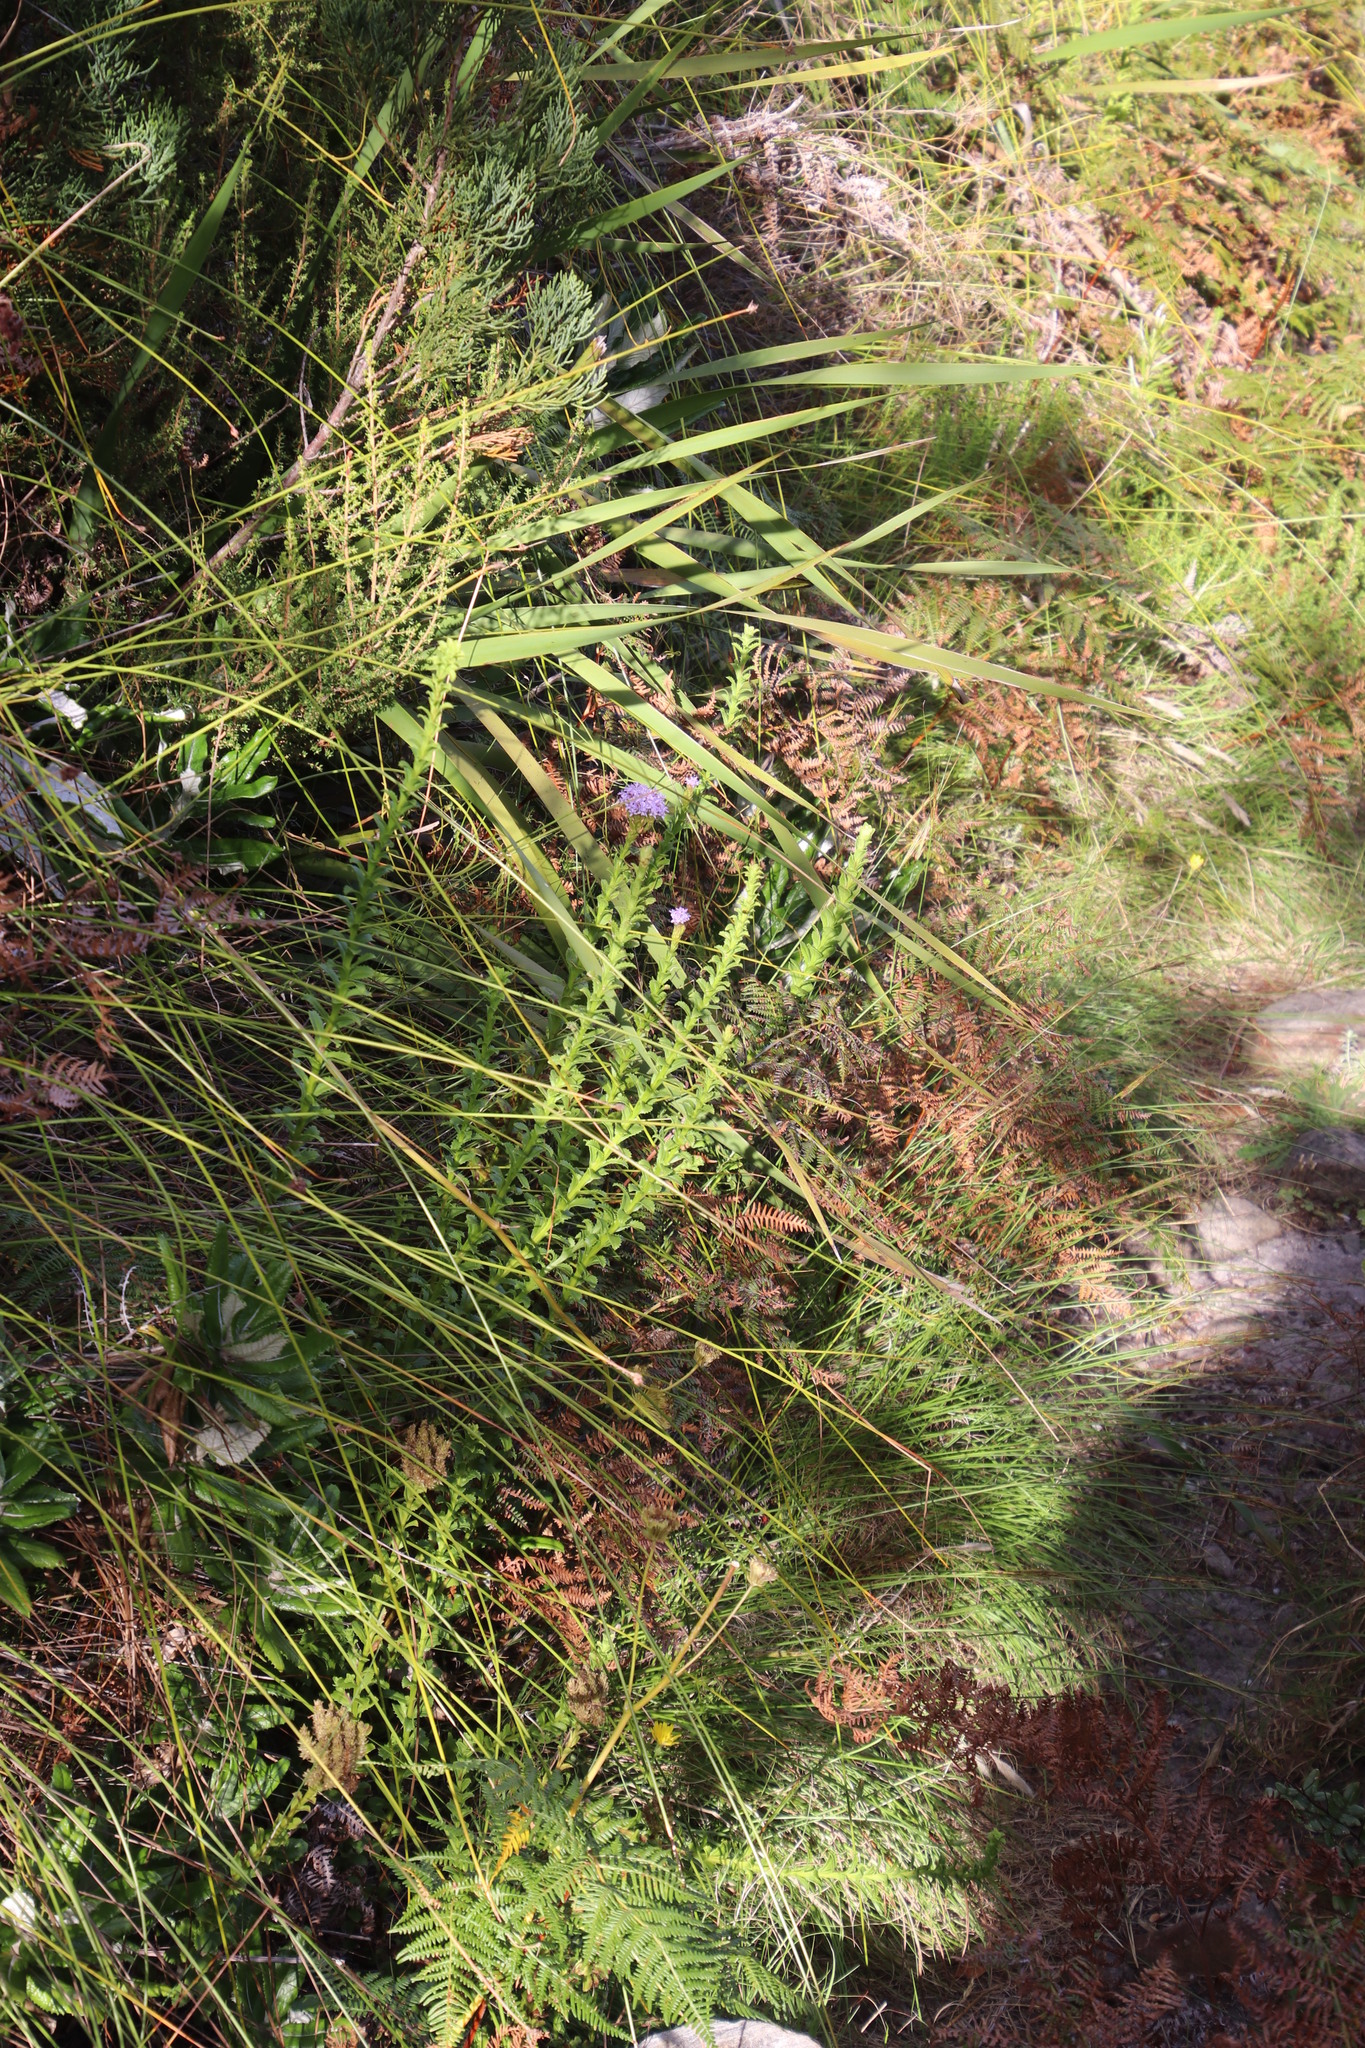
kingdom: Plantae
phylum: Tracheophyta
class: Magnoliopsida
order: Lamiales
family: Scrophulariaceae
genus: Pseudoselago
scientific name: Pseudoselago serrata
